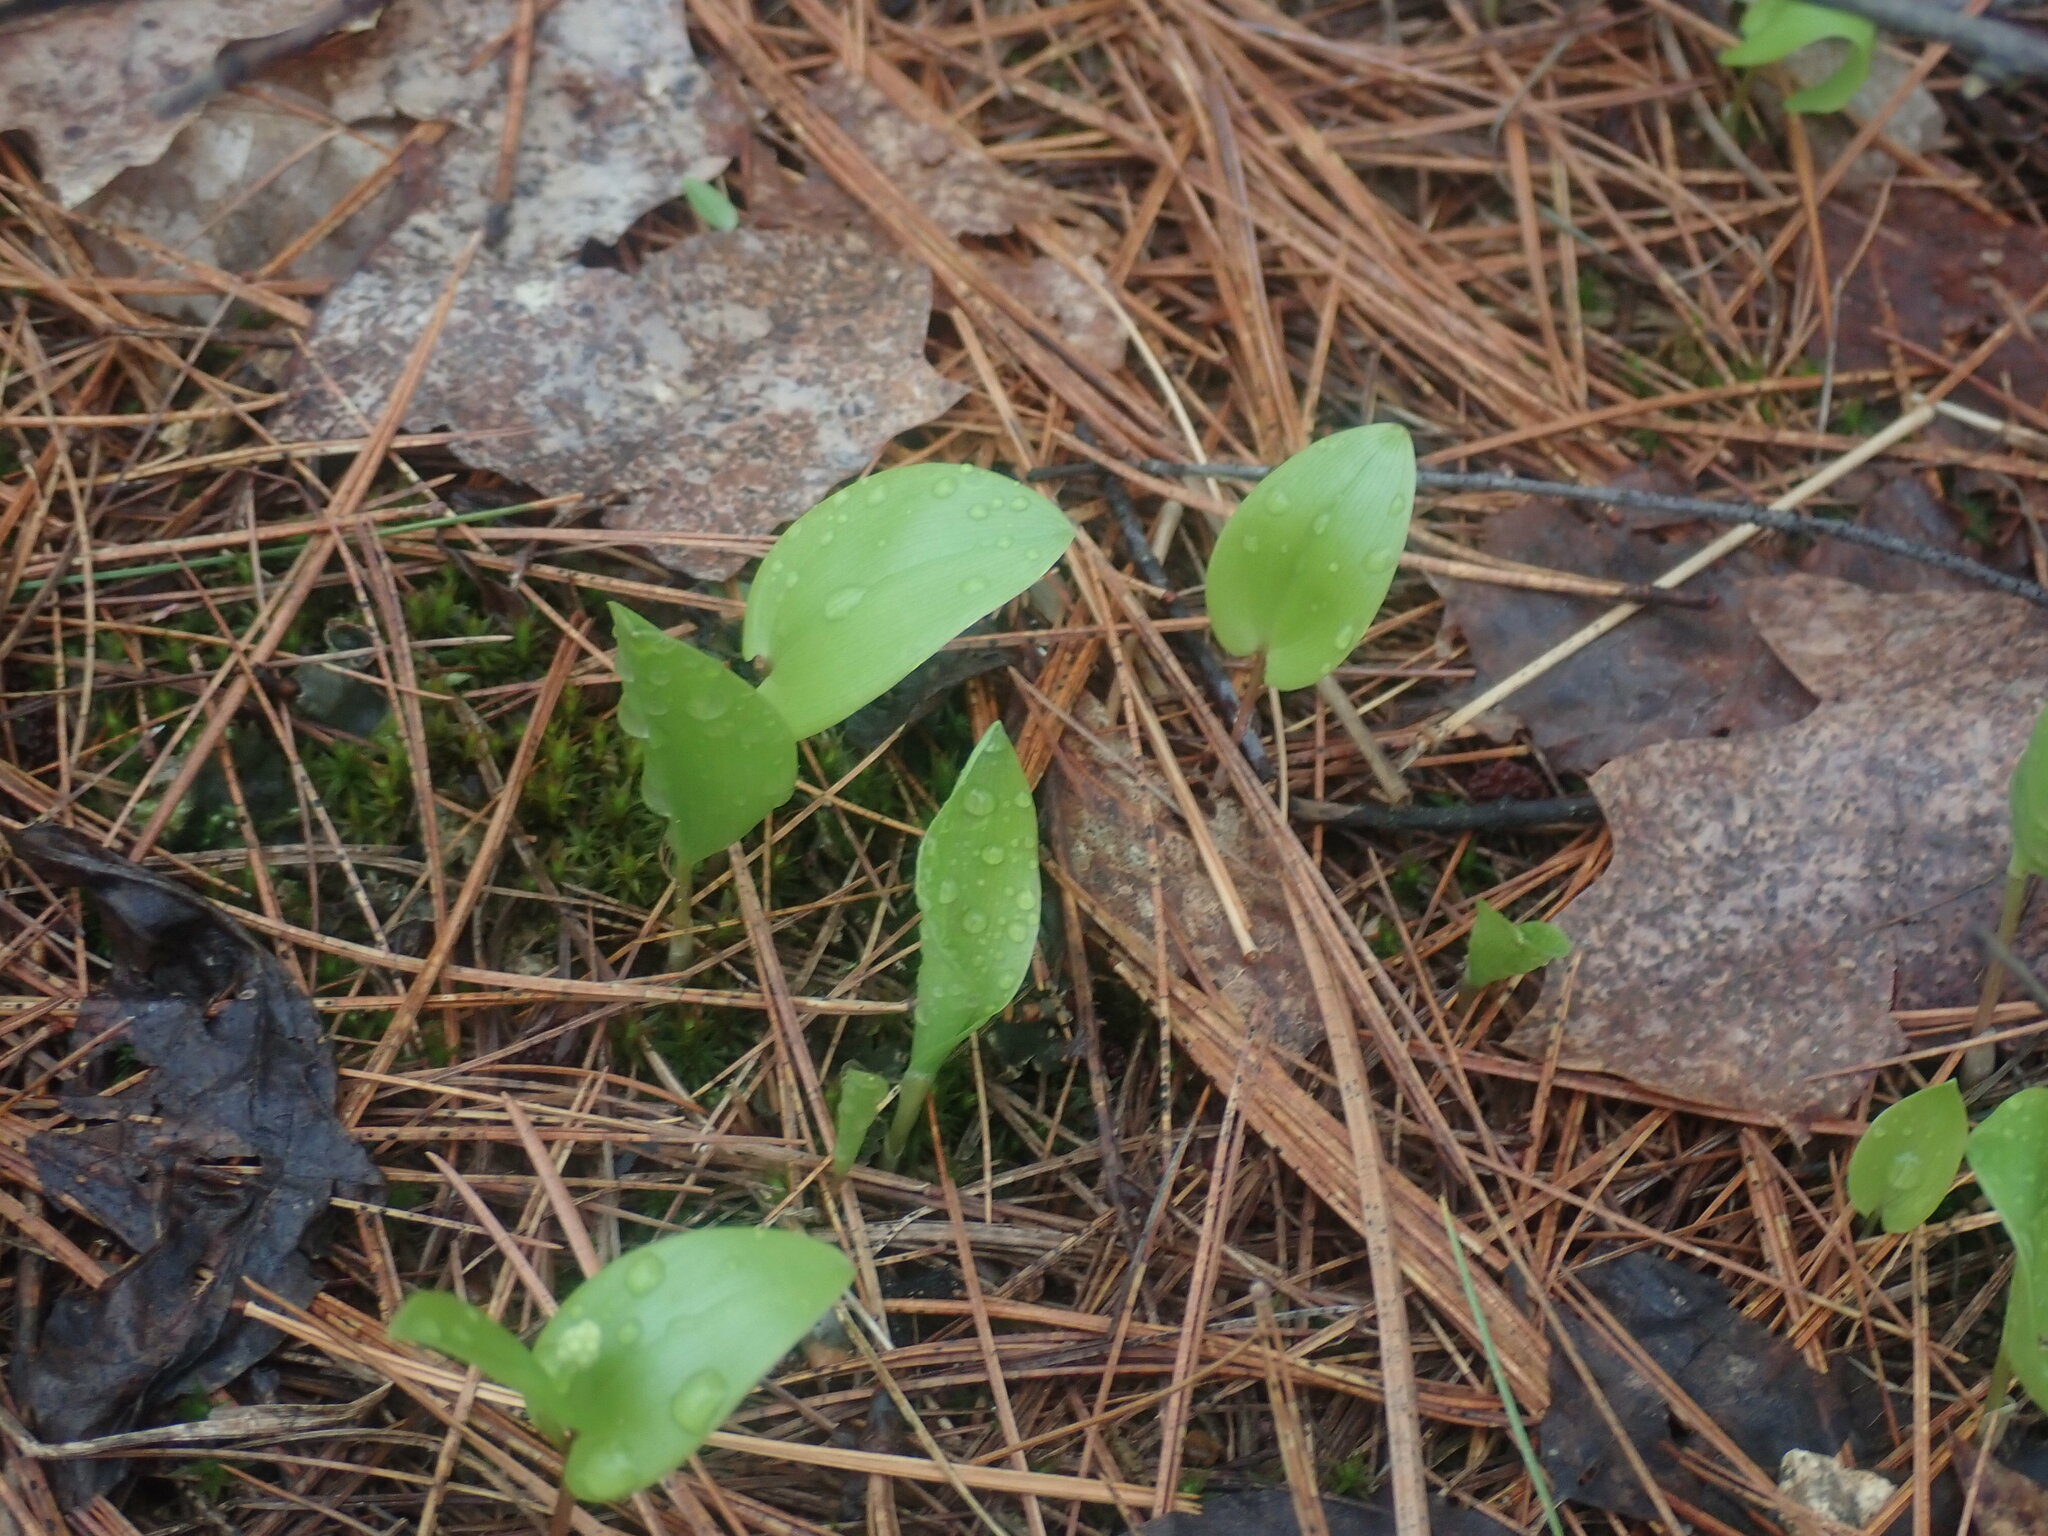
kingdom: Plantae
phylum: Tracheophyta
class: Liliopsida
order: Asparagales
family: Asparagaceae
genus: Maianthemum
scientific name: Maianthemum canadense
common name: False lily-of-the-valley
